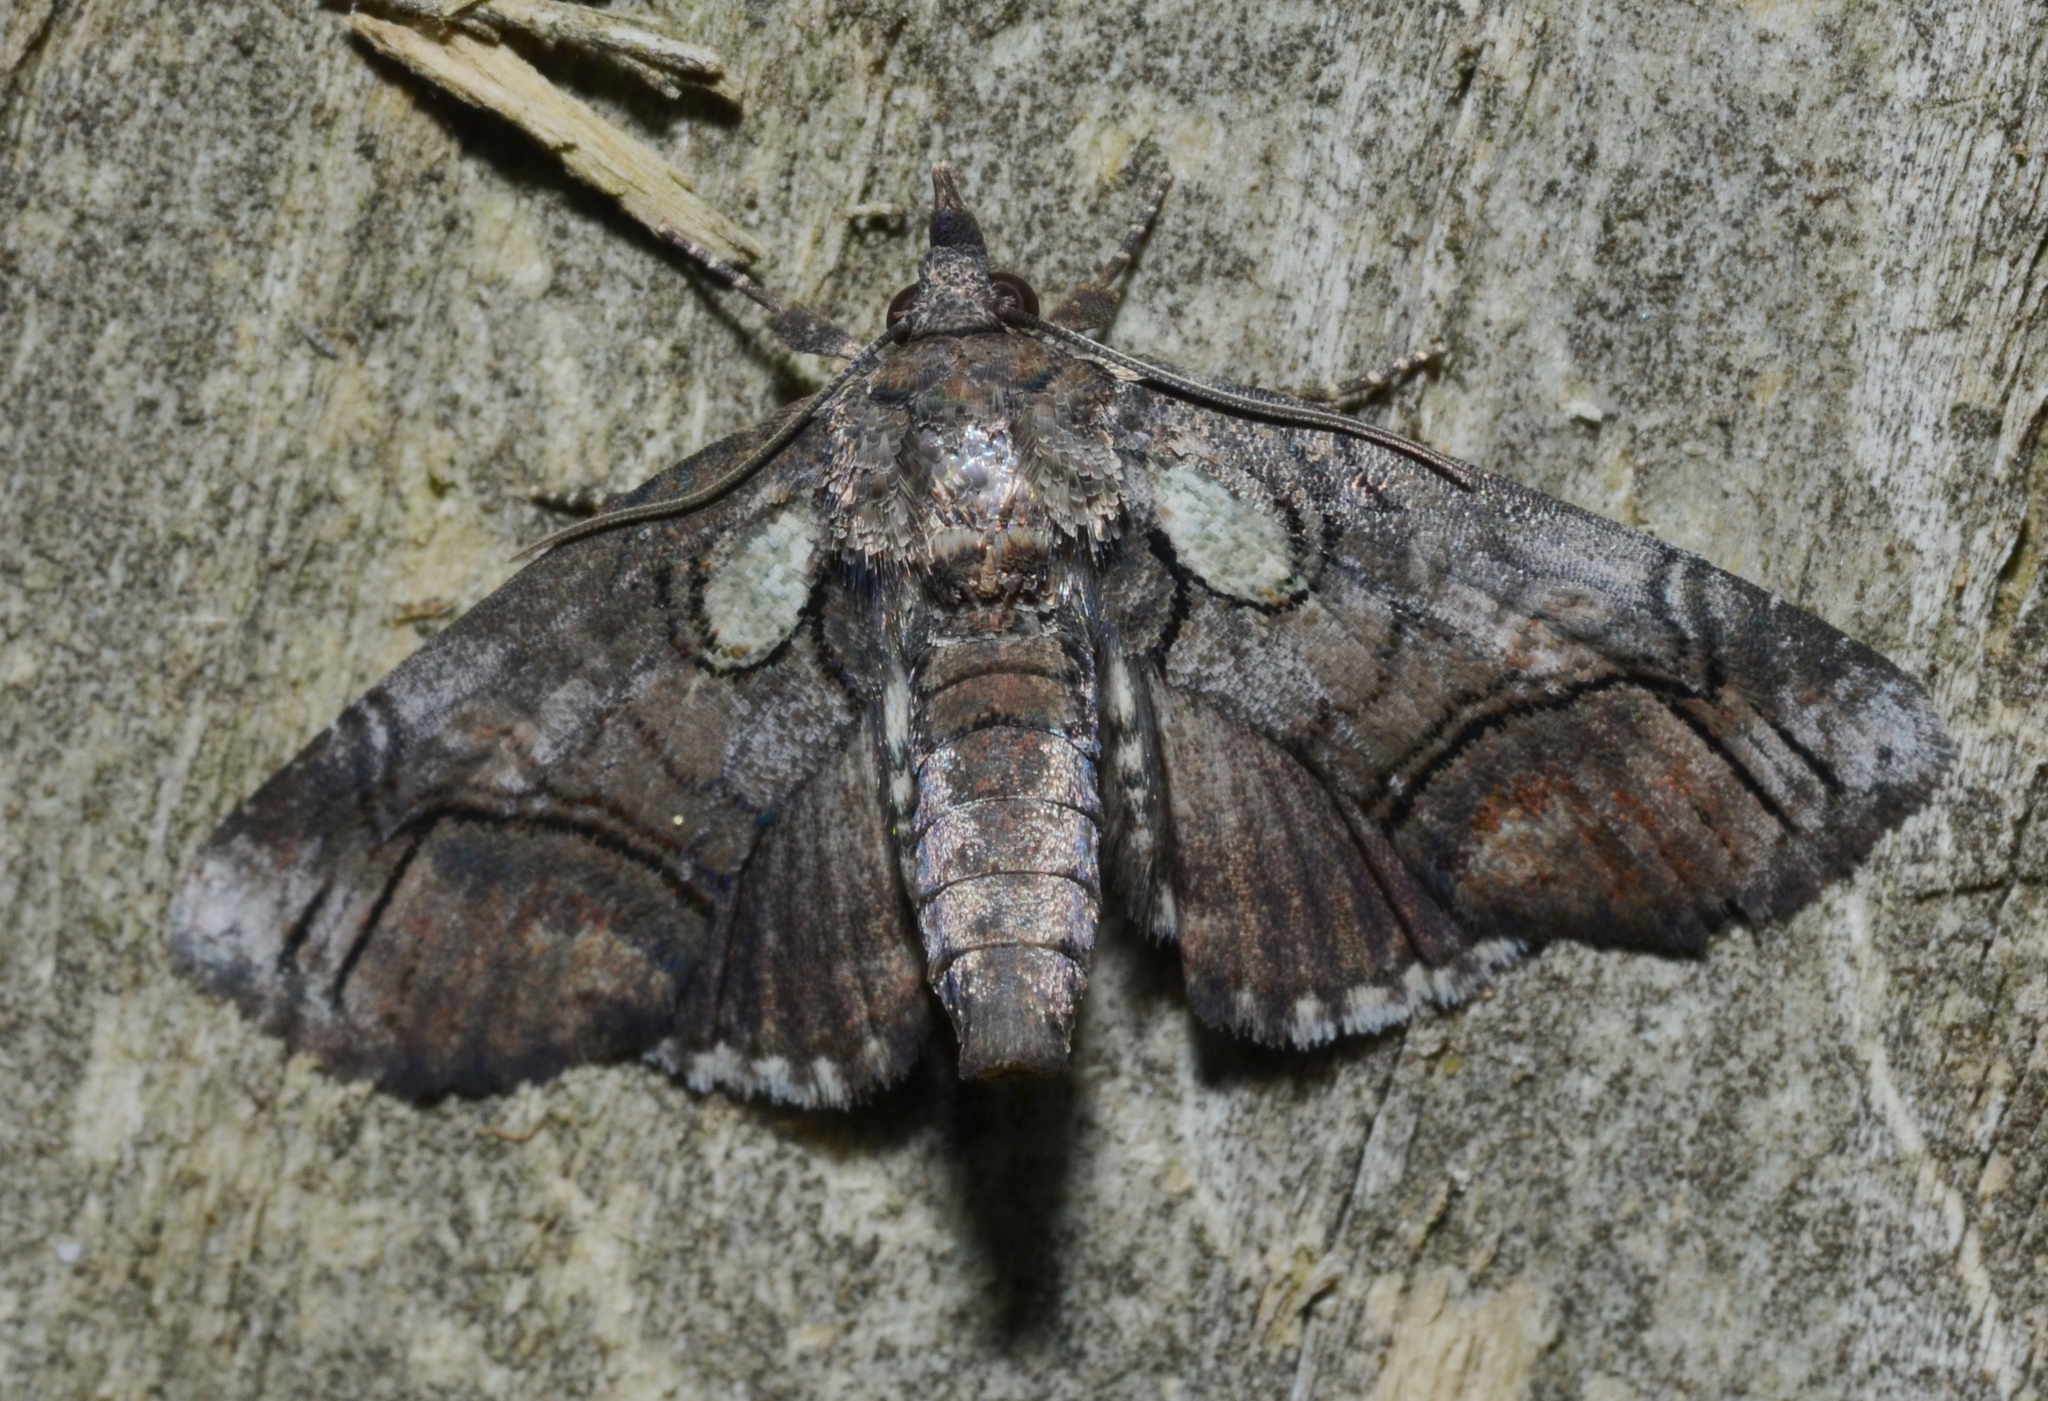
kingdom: Animalia
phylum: Arthropoda
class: Insecta
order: Lepidoptera
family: Euteliidae
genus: Paectes
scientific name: Paectes pygmaea
